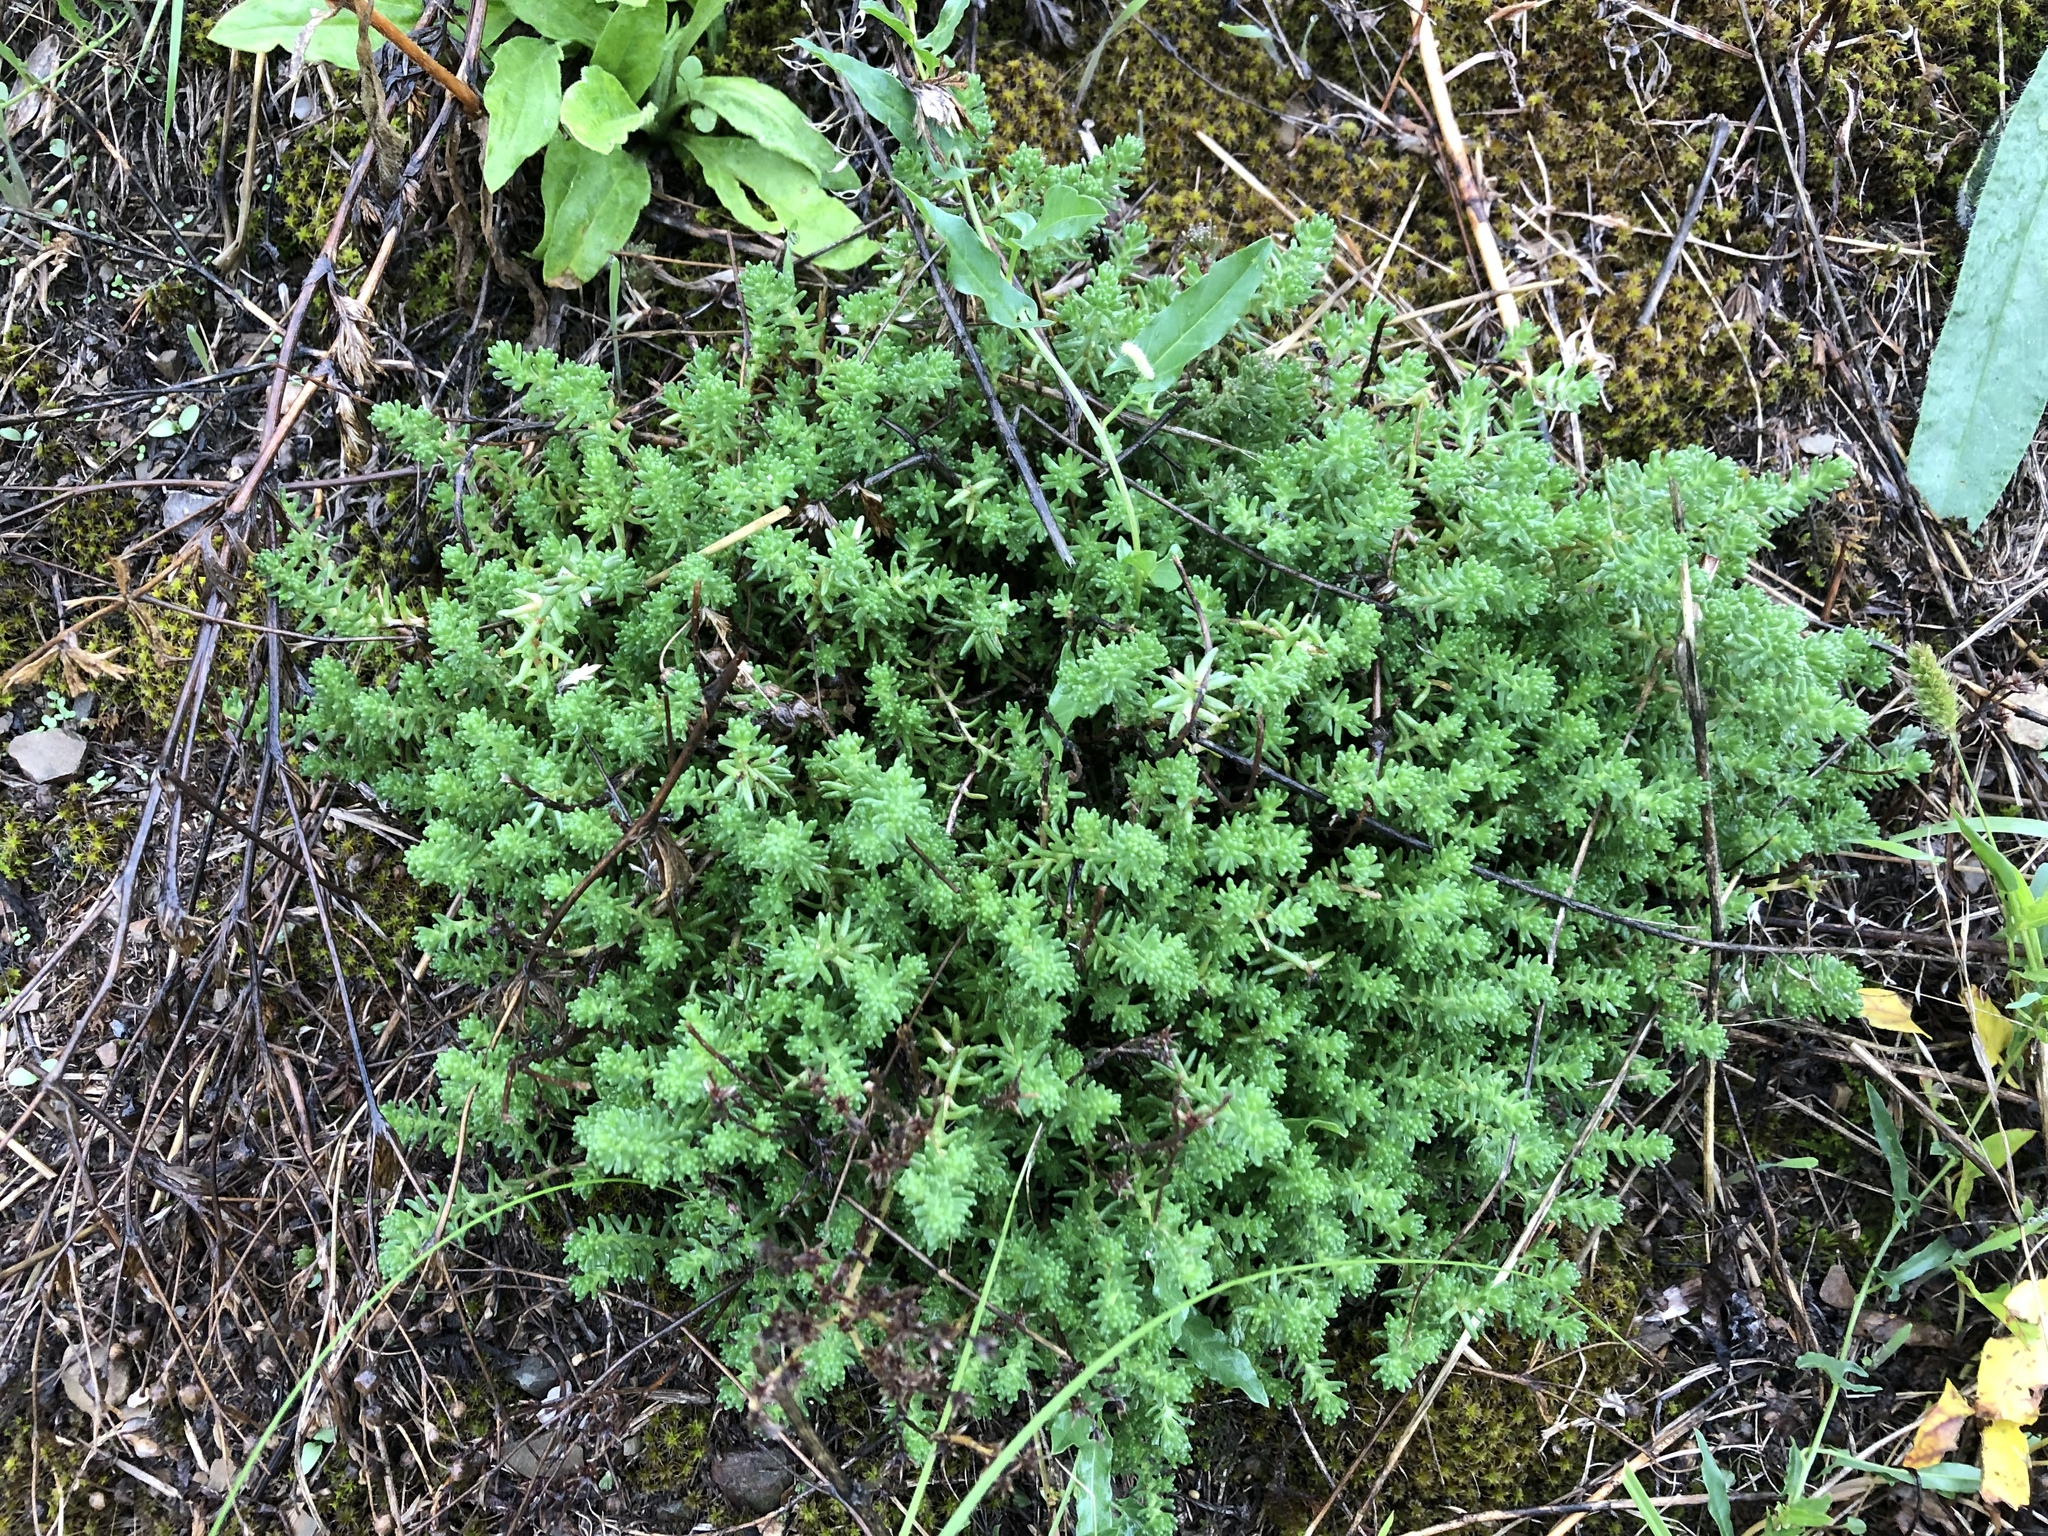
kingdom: Plantae
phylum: Tracheophyta
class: Magnoliopsida
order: Saxifragales
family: Crassulaceae
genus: Sedum
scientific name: Sedum sexangulare
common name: Tasteless stonecrop
